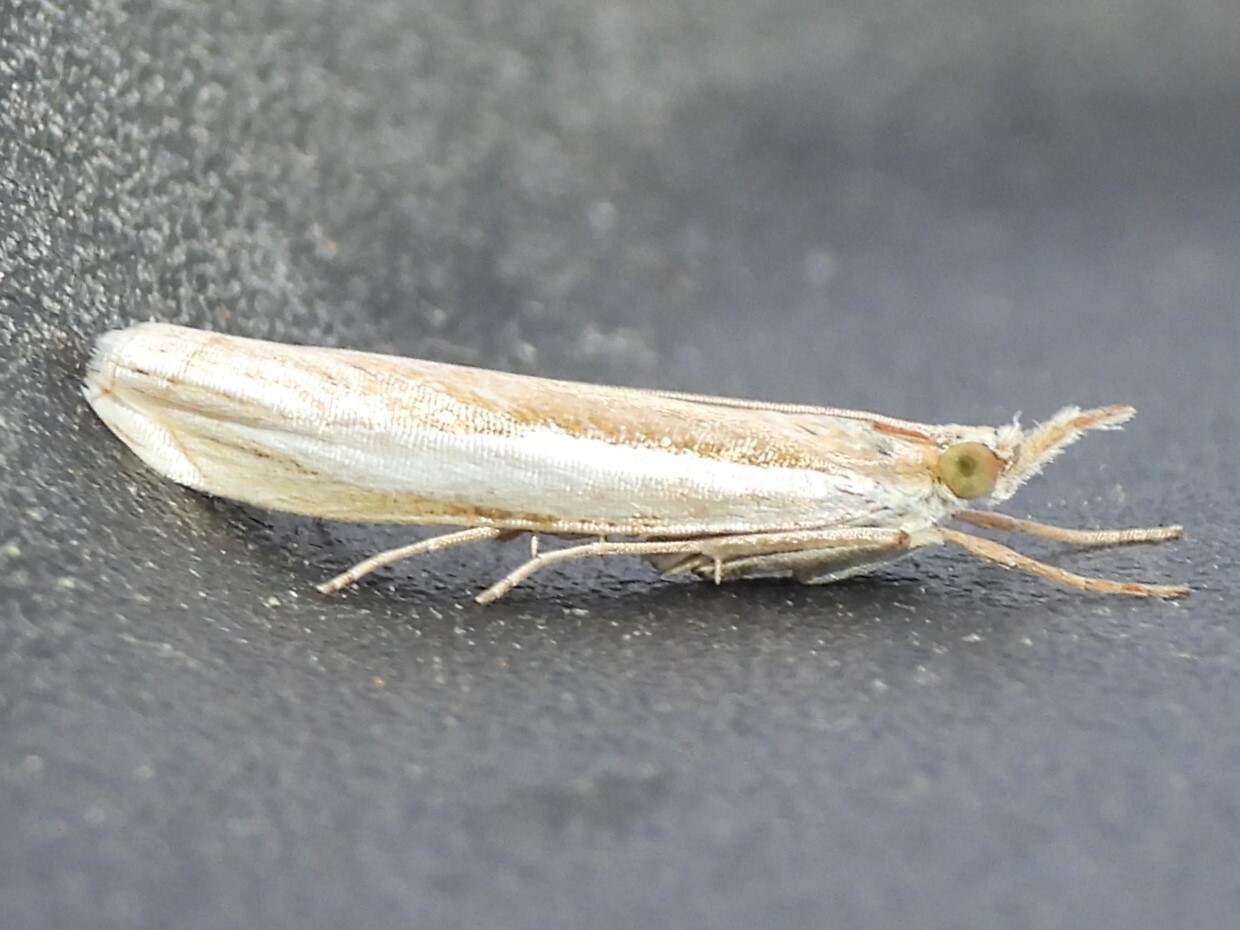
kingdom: Animalia
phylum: Arthropoda
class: Insecta
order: Lepidoptera
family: Crambidae
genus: Crambus
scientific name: Crambus leachellus
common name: Leach's grass-veneer
